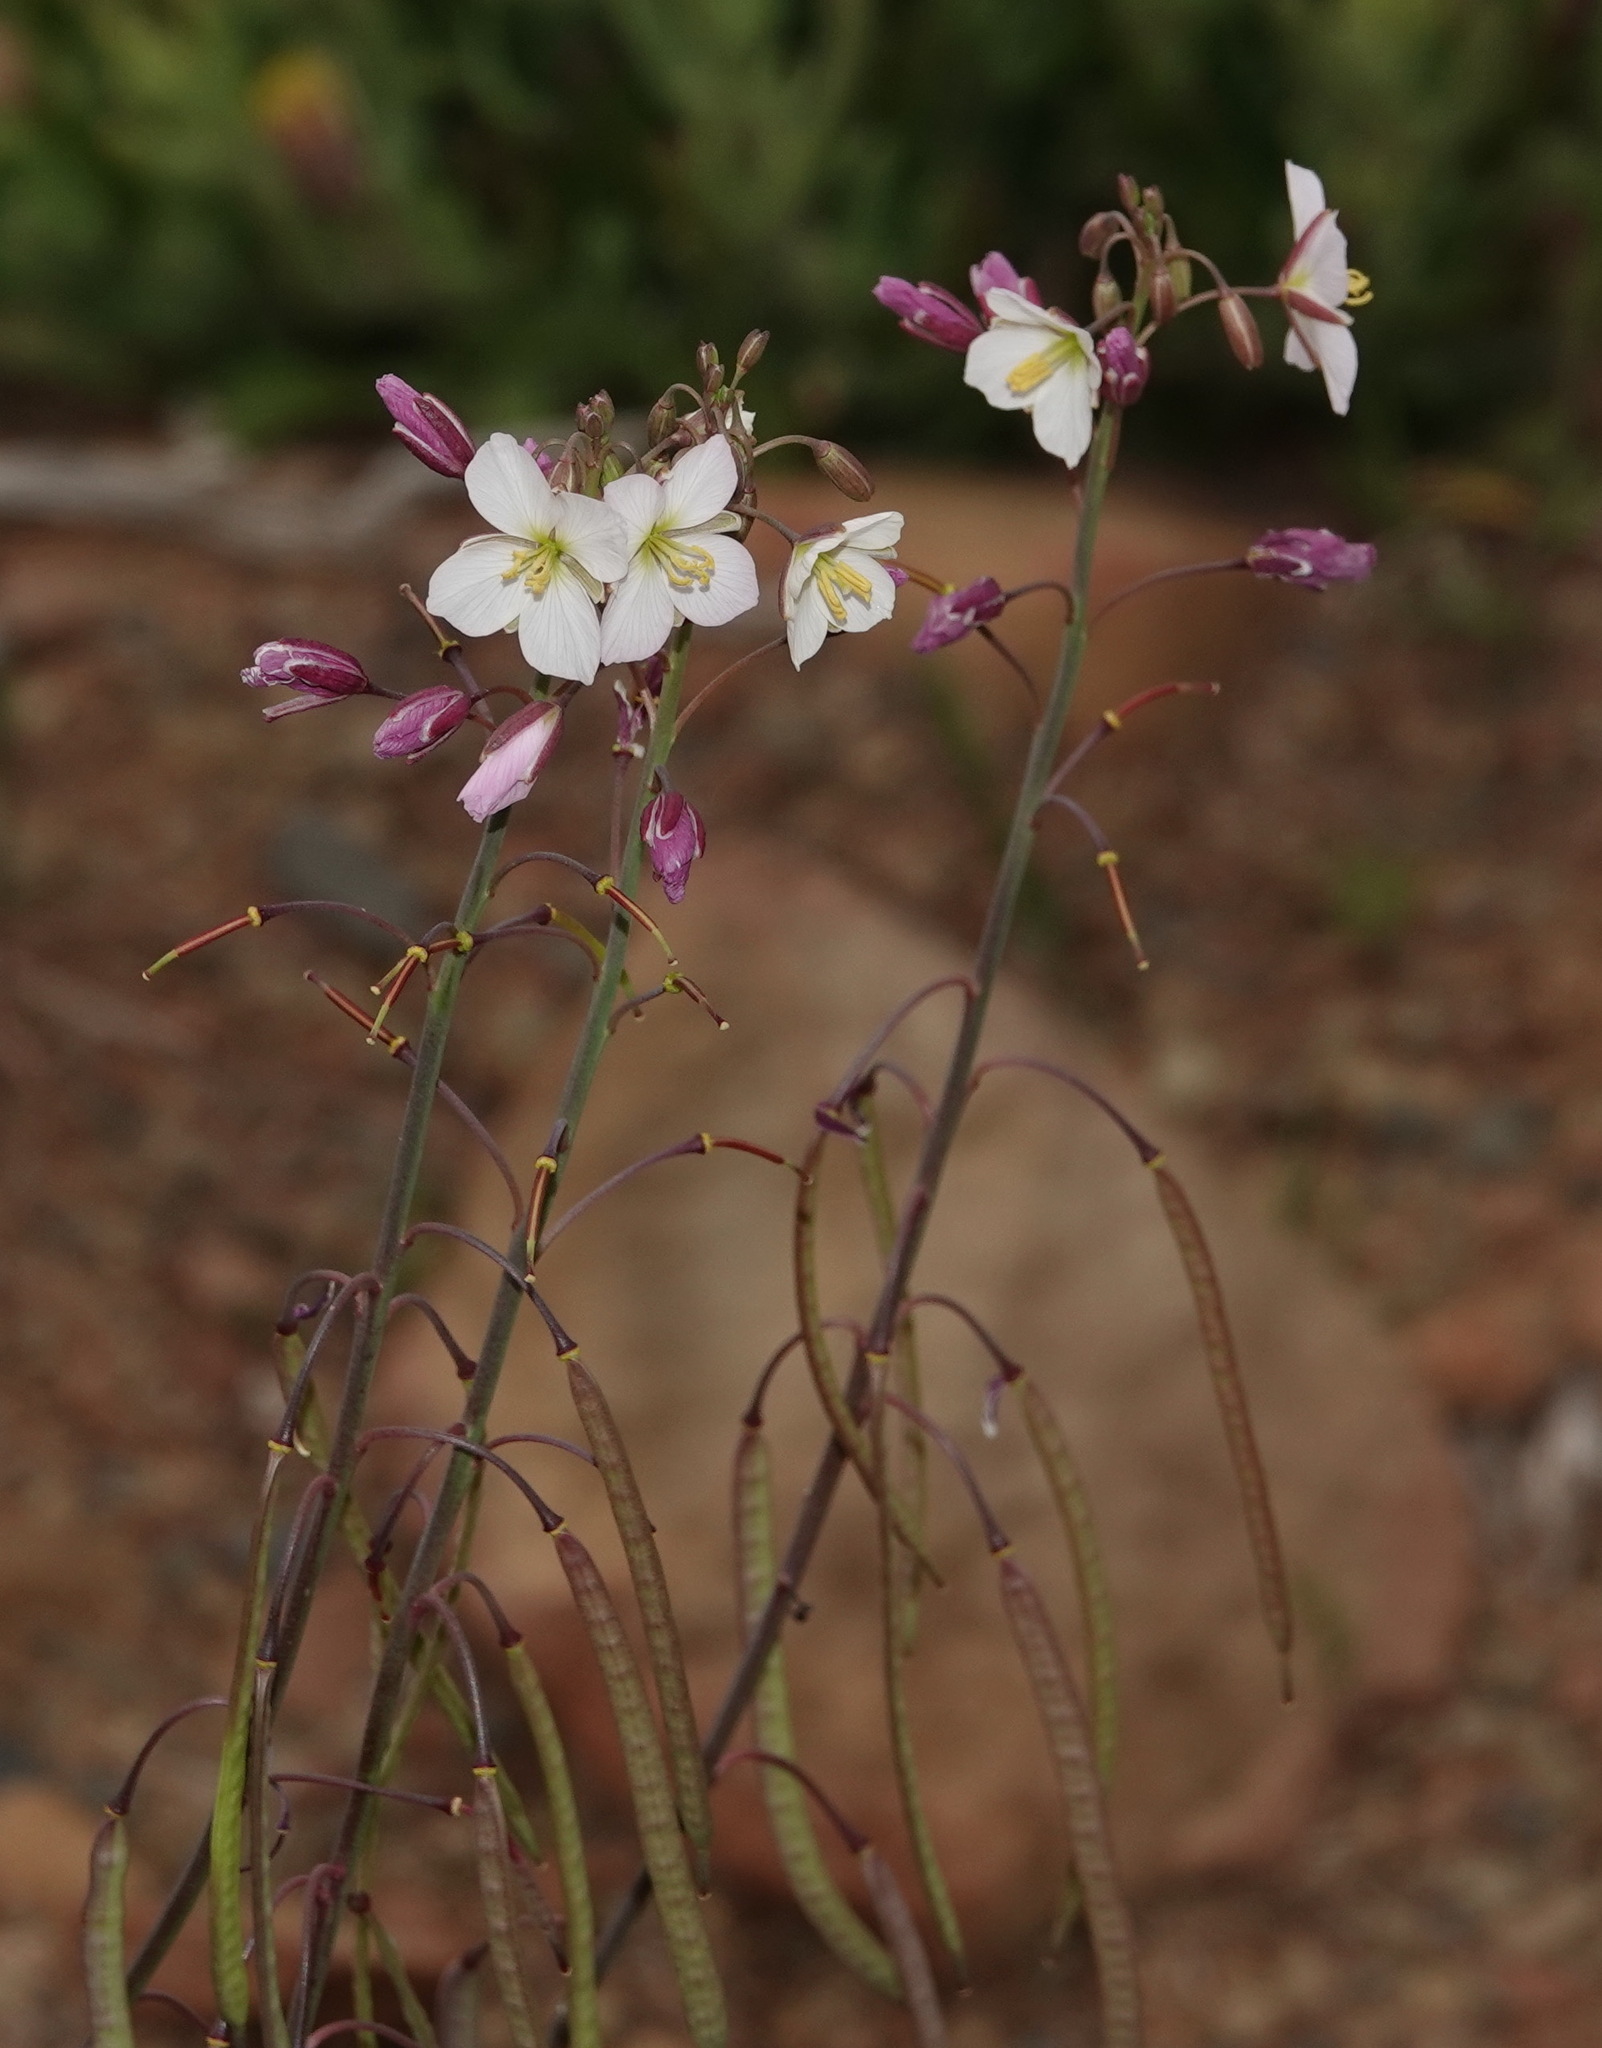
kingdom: Plantae
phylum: Tracheophyta
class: Magnoliopsida
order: Brassicales
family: Brassicaceae
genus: Heliophila
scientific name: Heliophila carnosa
